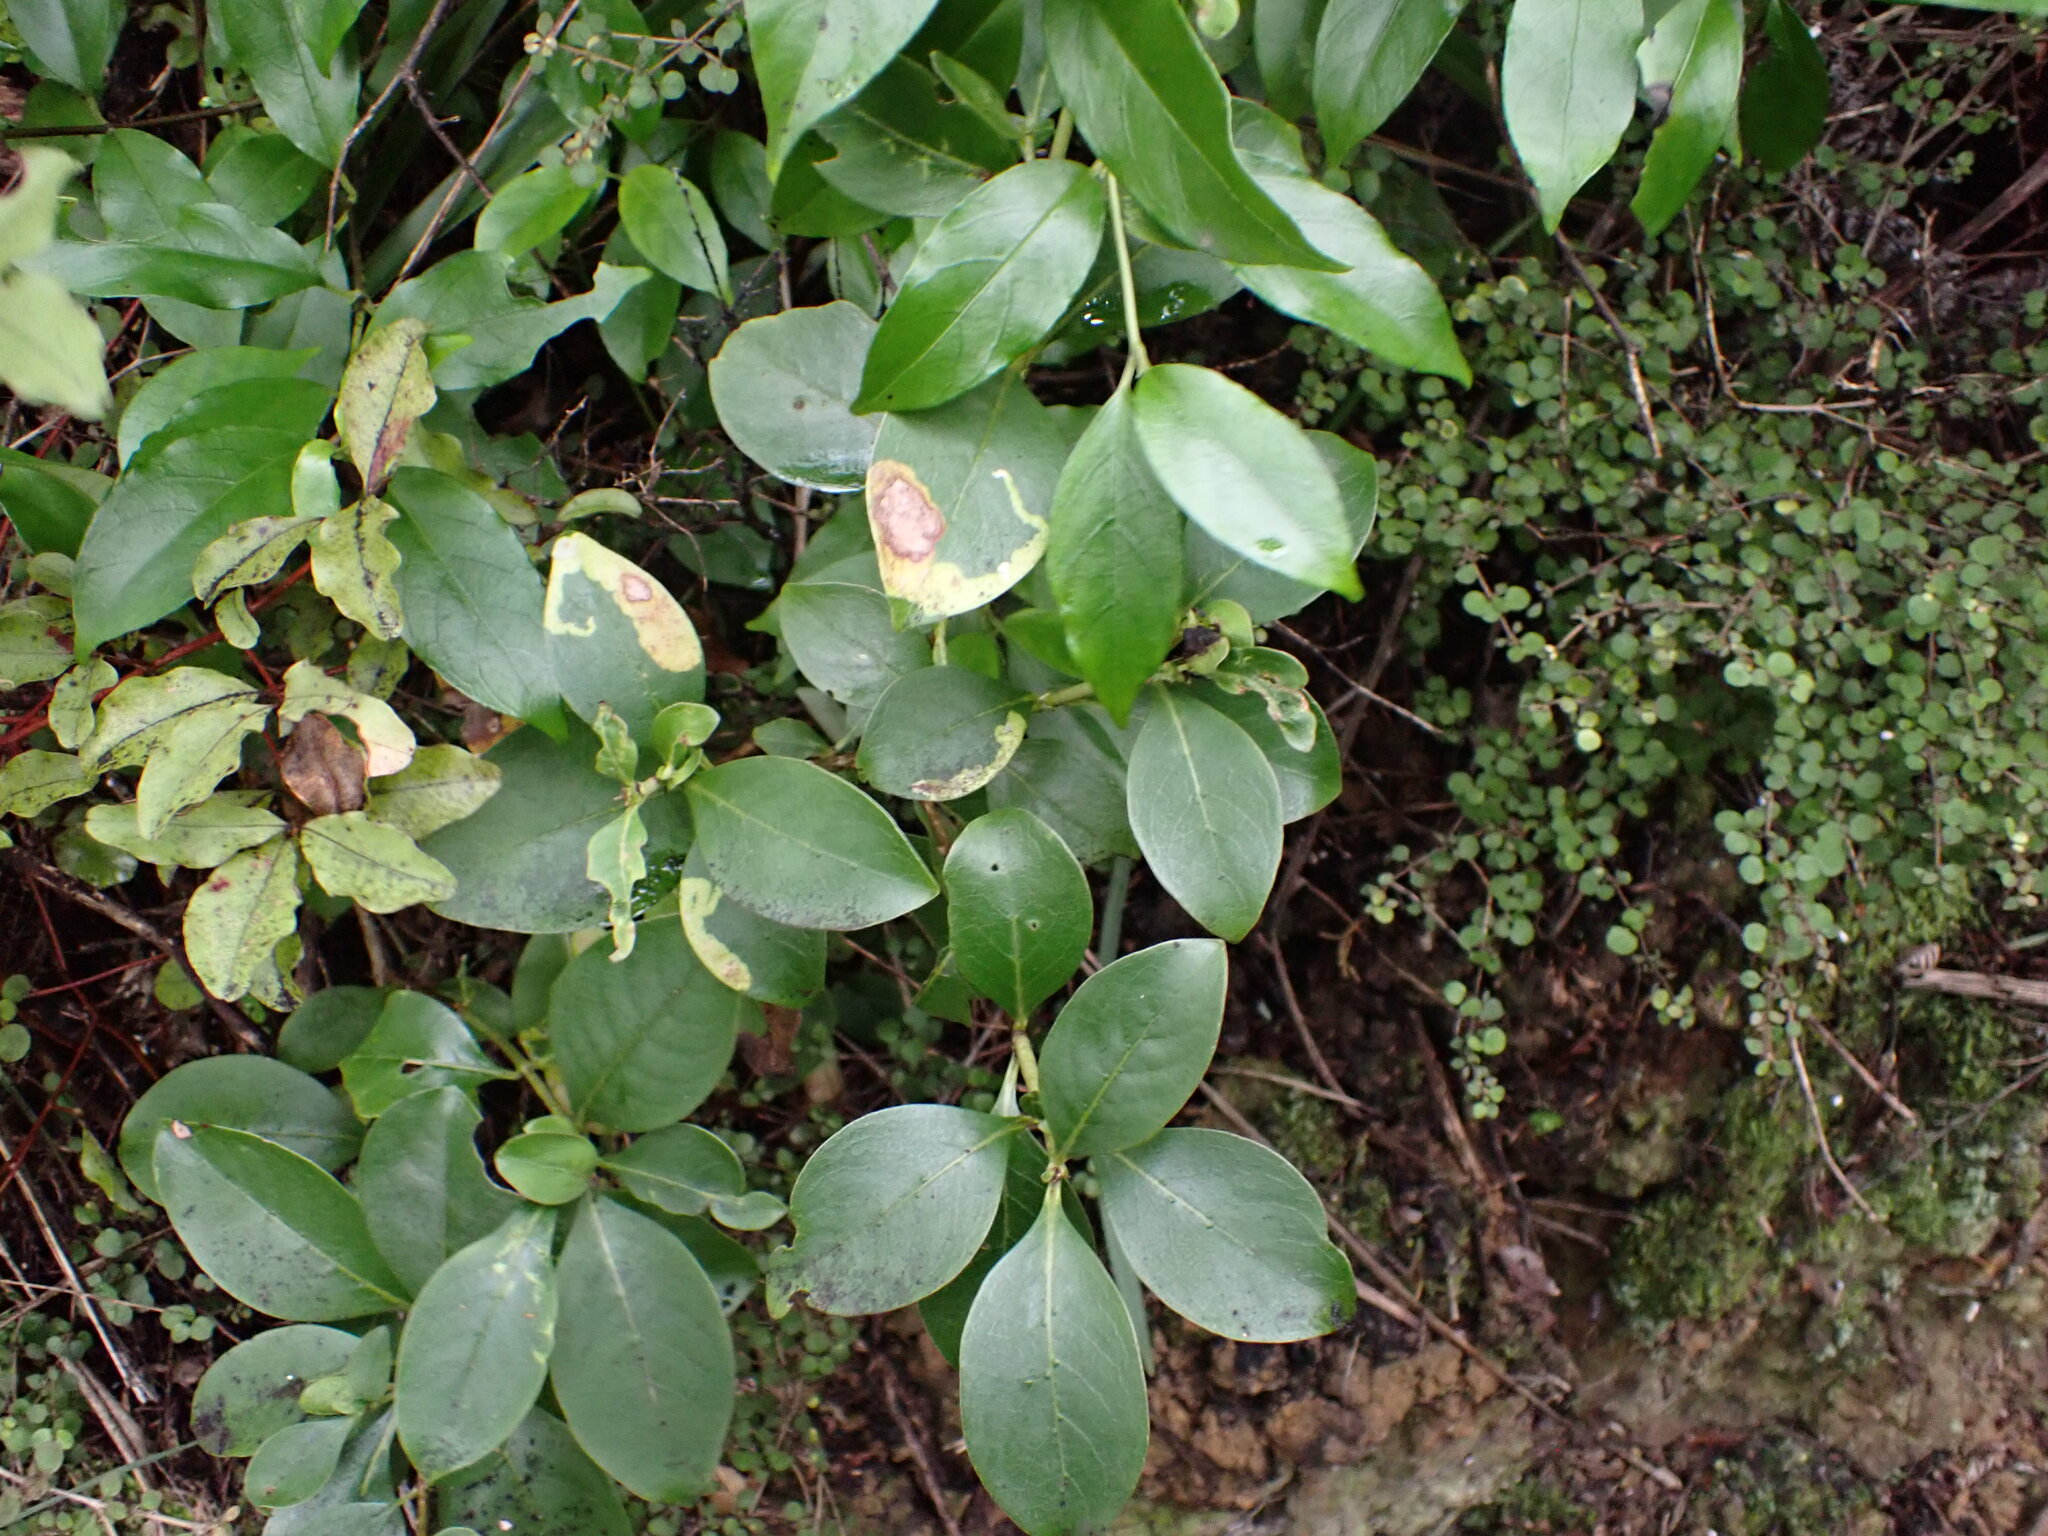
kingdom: Plantae
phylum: Tracheophyta
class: Magnoliopsida
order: Gentianales
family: Rubiaceae
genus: Coprosma
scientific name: Coprosma macrocarpa
